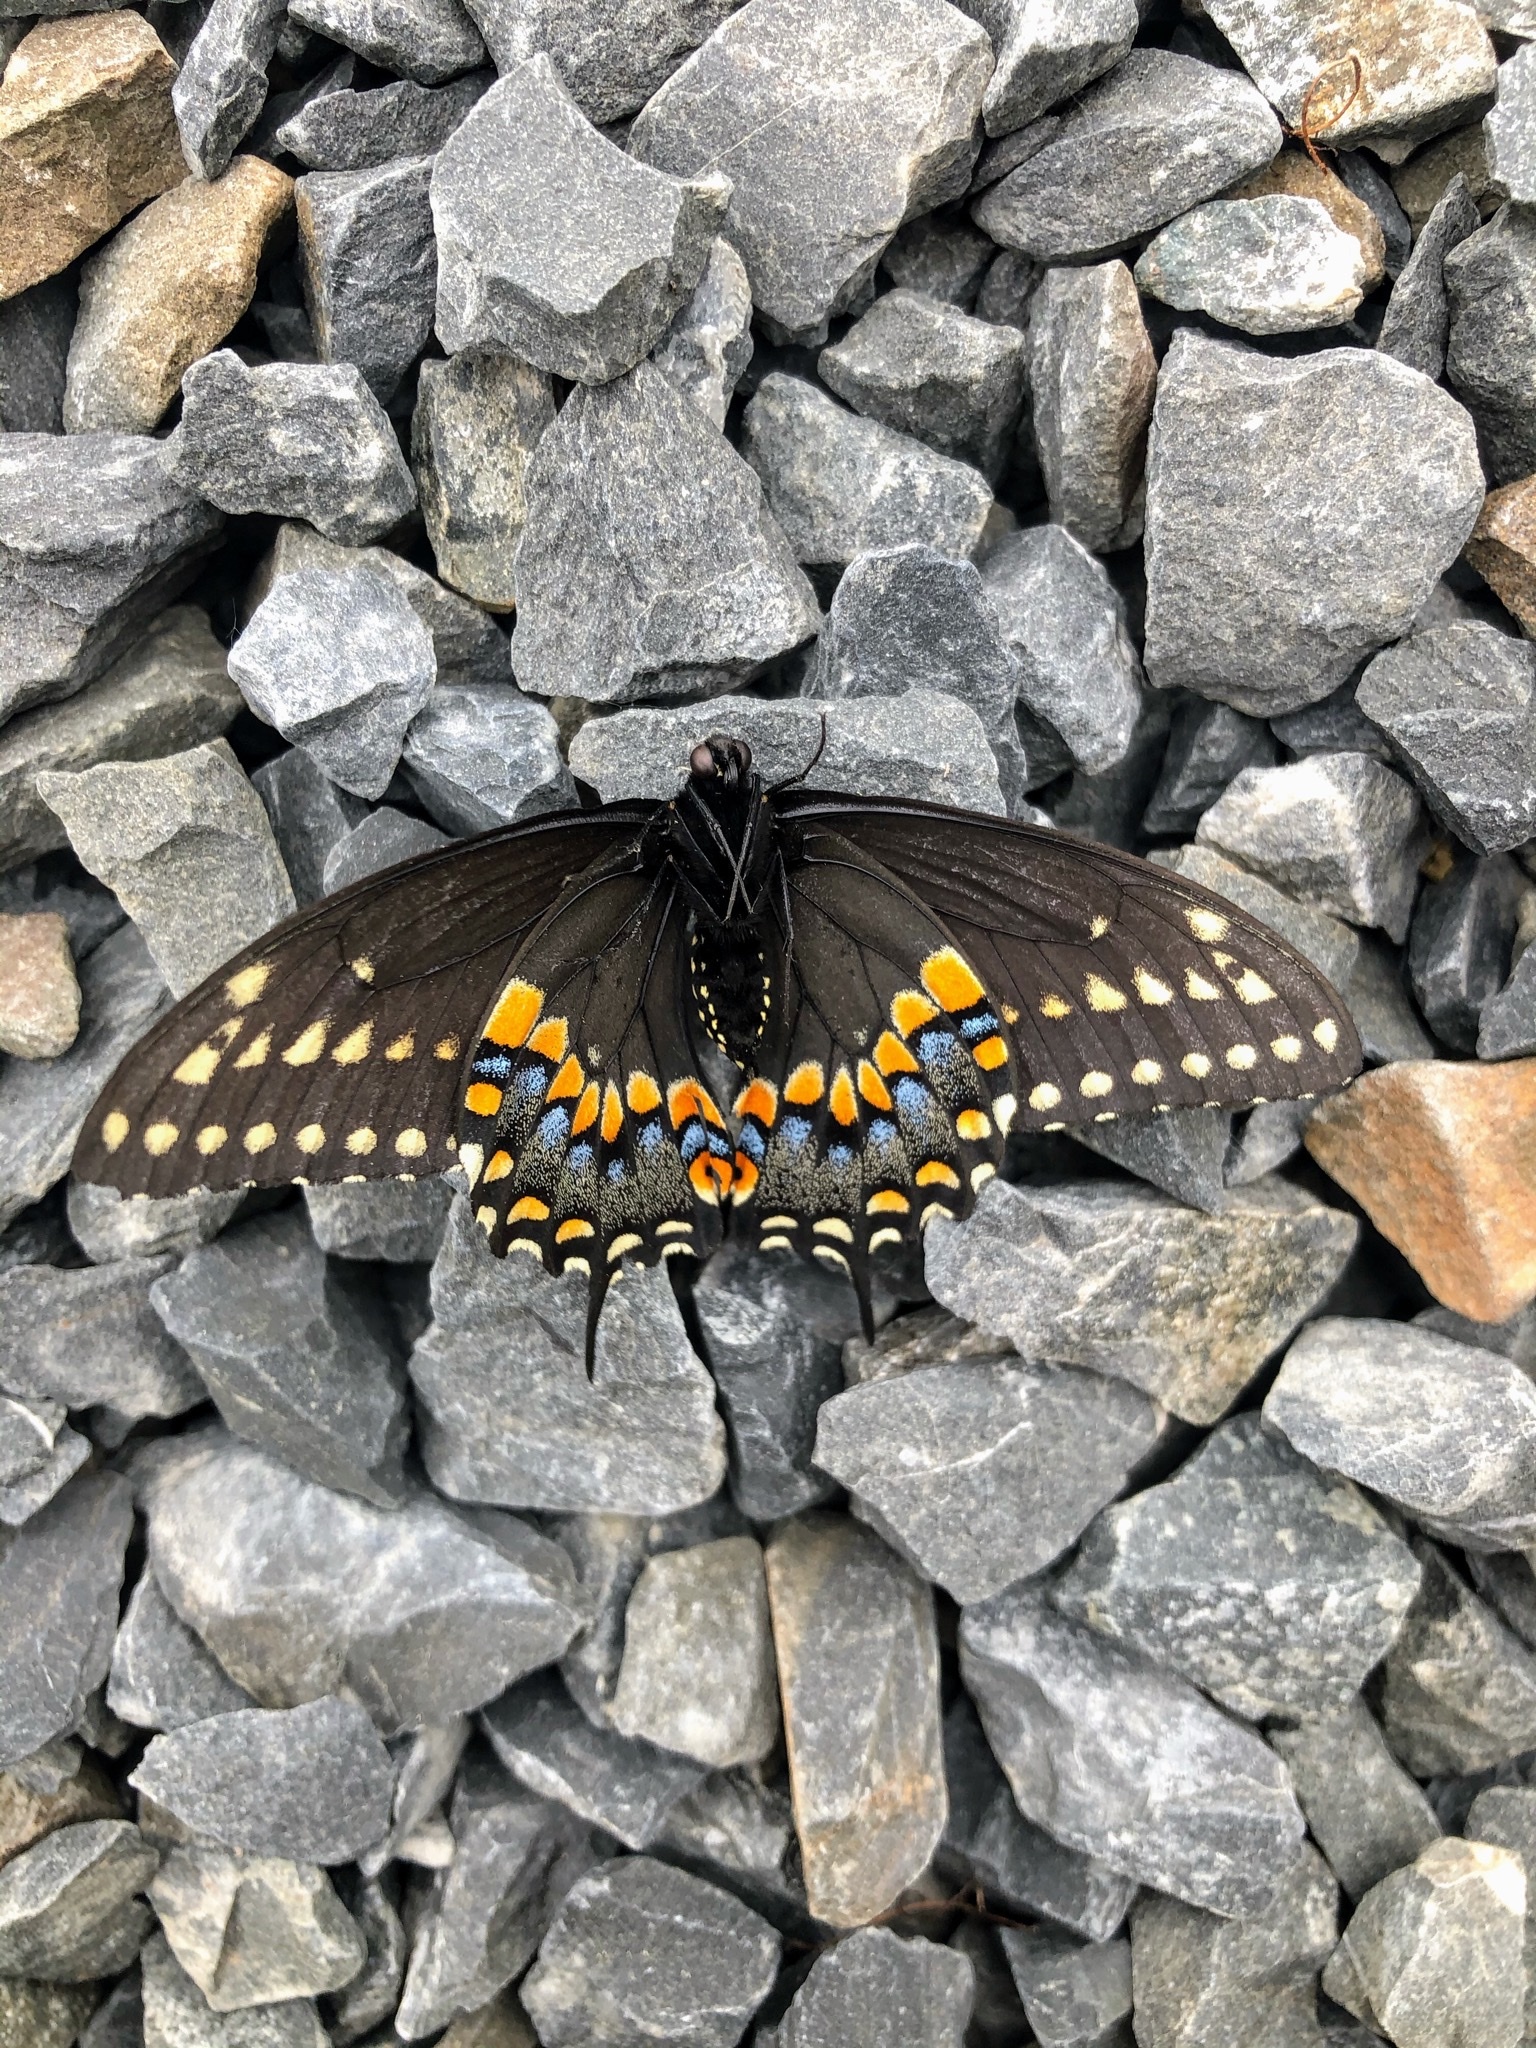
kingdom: Animalia
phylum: Arthropoda
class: Insecta
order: Lepidoptera
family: Papilionidae
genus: Papilio
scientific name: Papilio polyxenes
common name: Black swallowtail
